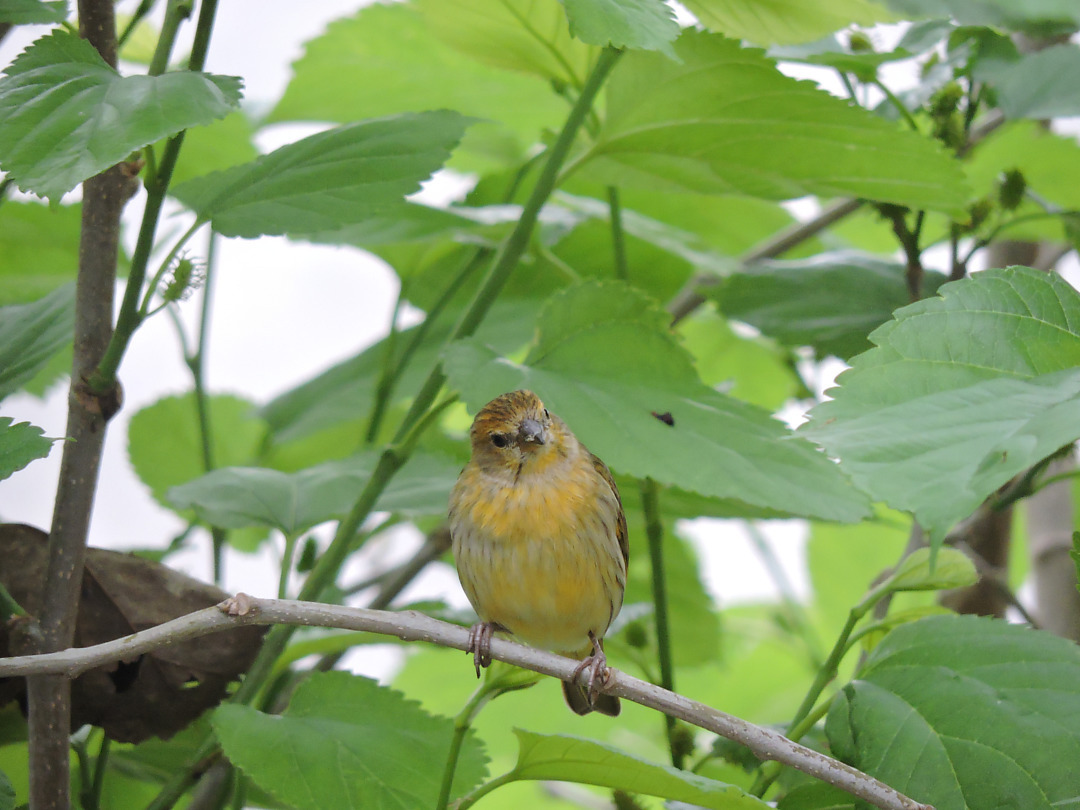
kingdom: Animalia
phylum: Chordata
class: Aves
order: Passeriformes
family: Thraupidae
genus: Sicalis
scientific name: Sicalis flaveola
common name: Saffron finch
